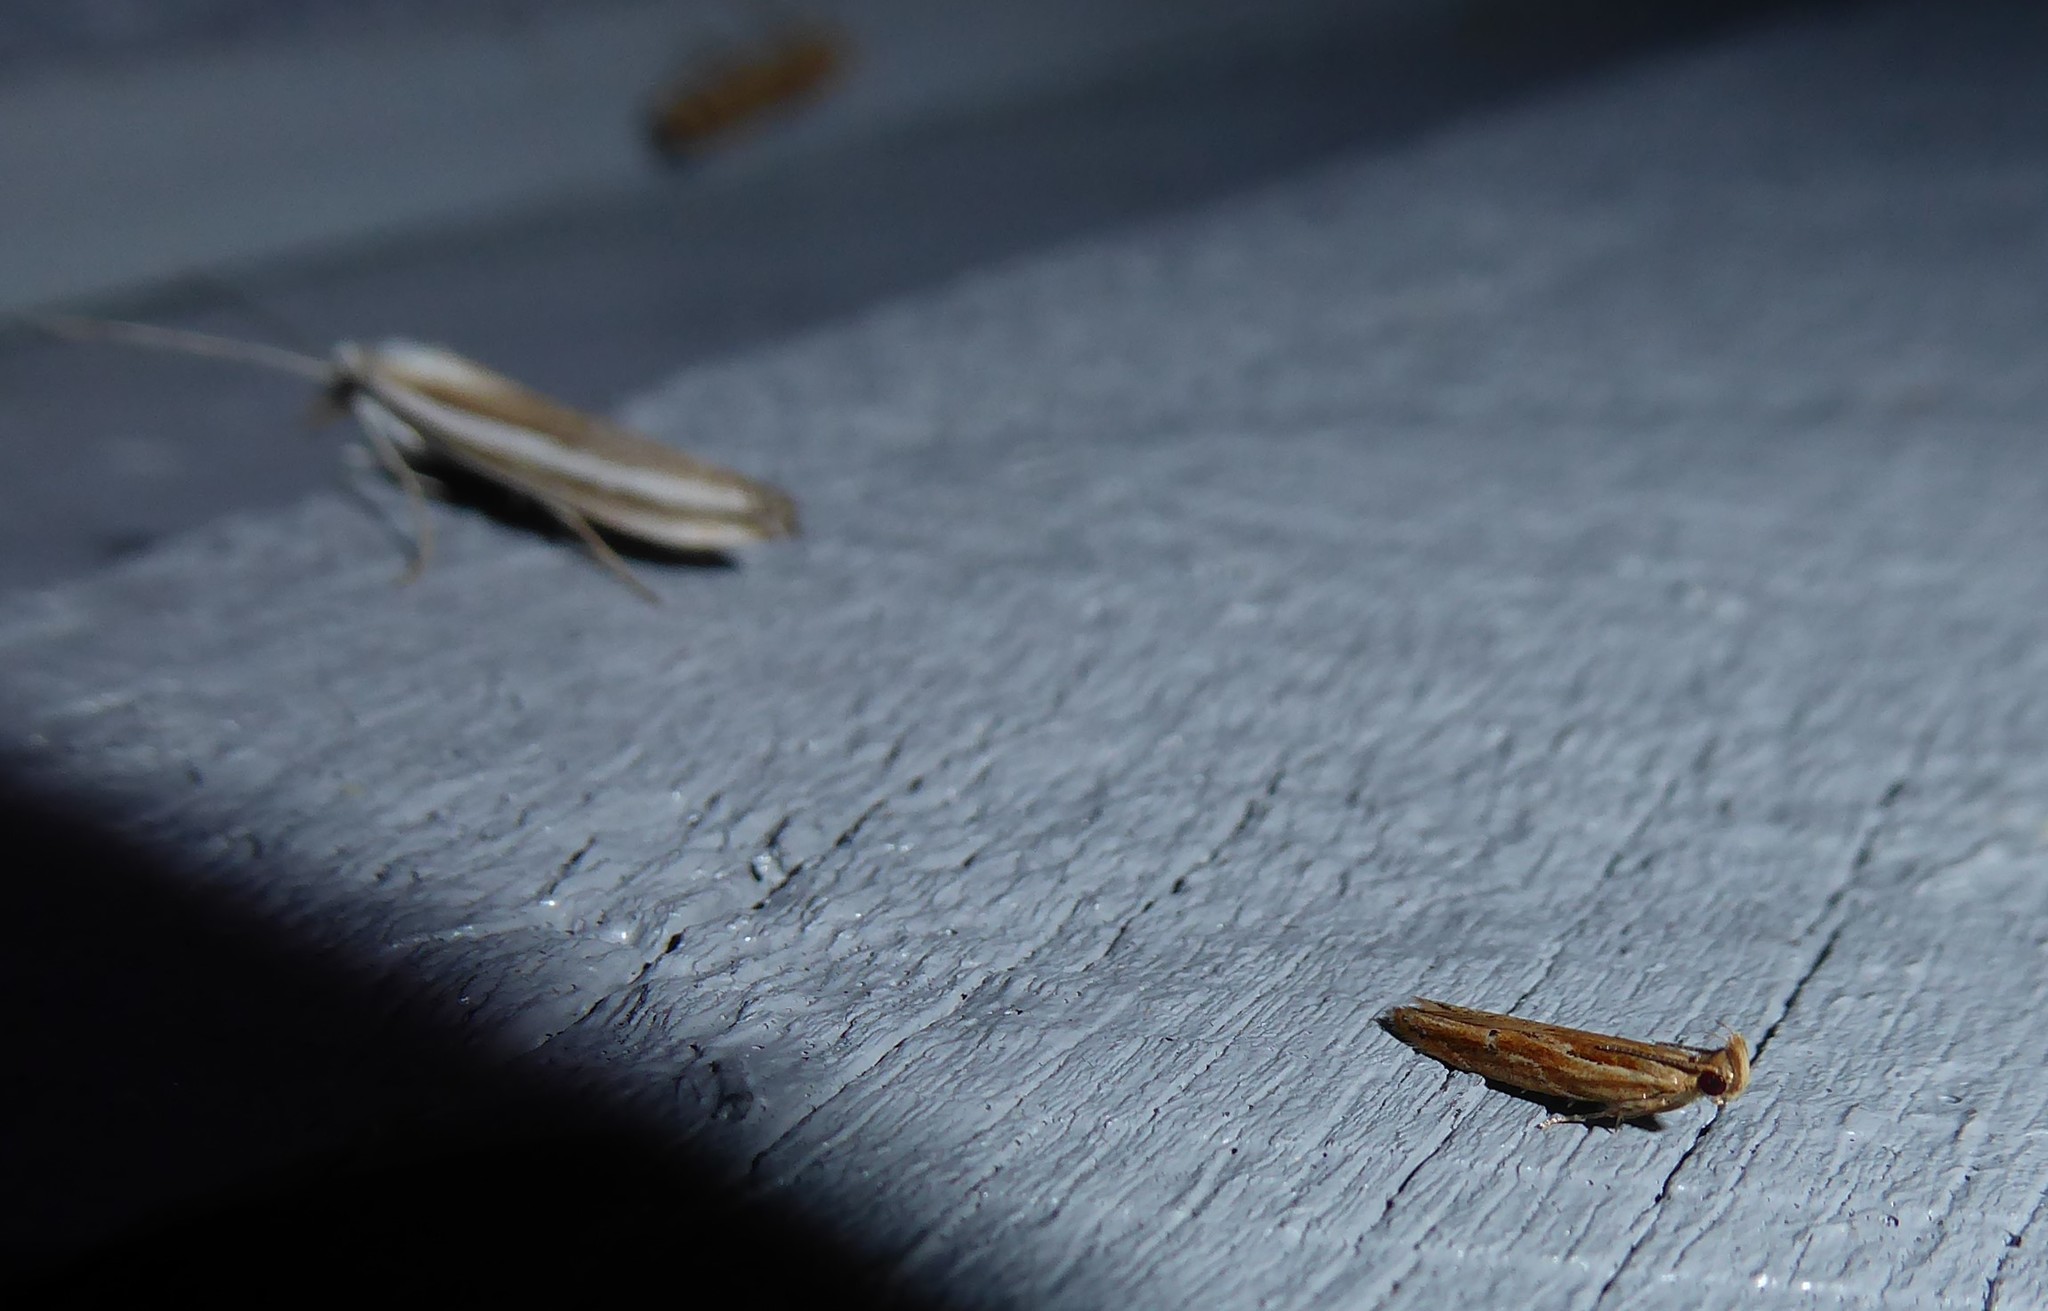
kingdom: Animalia
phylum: Arthropoda
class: Insecta
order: Lepidoptera
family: Depressariidae
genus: Eutorna
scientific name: Eutorna symmorpha
